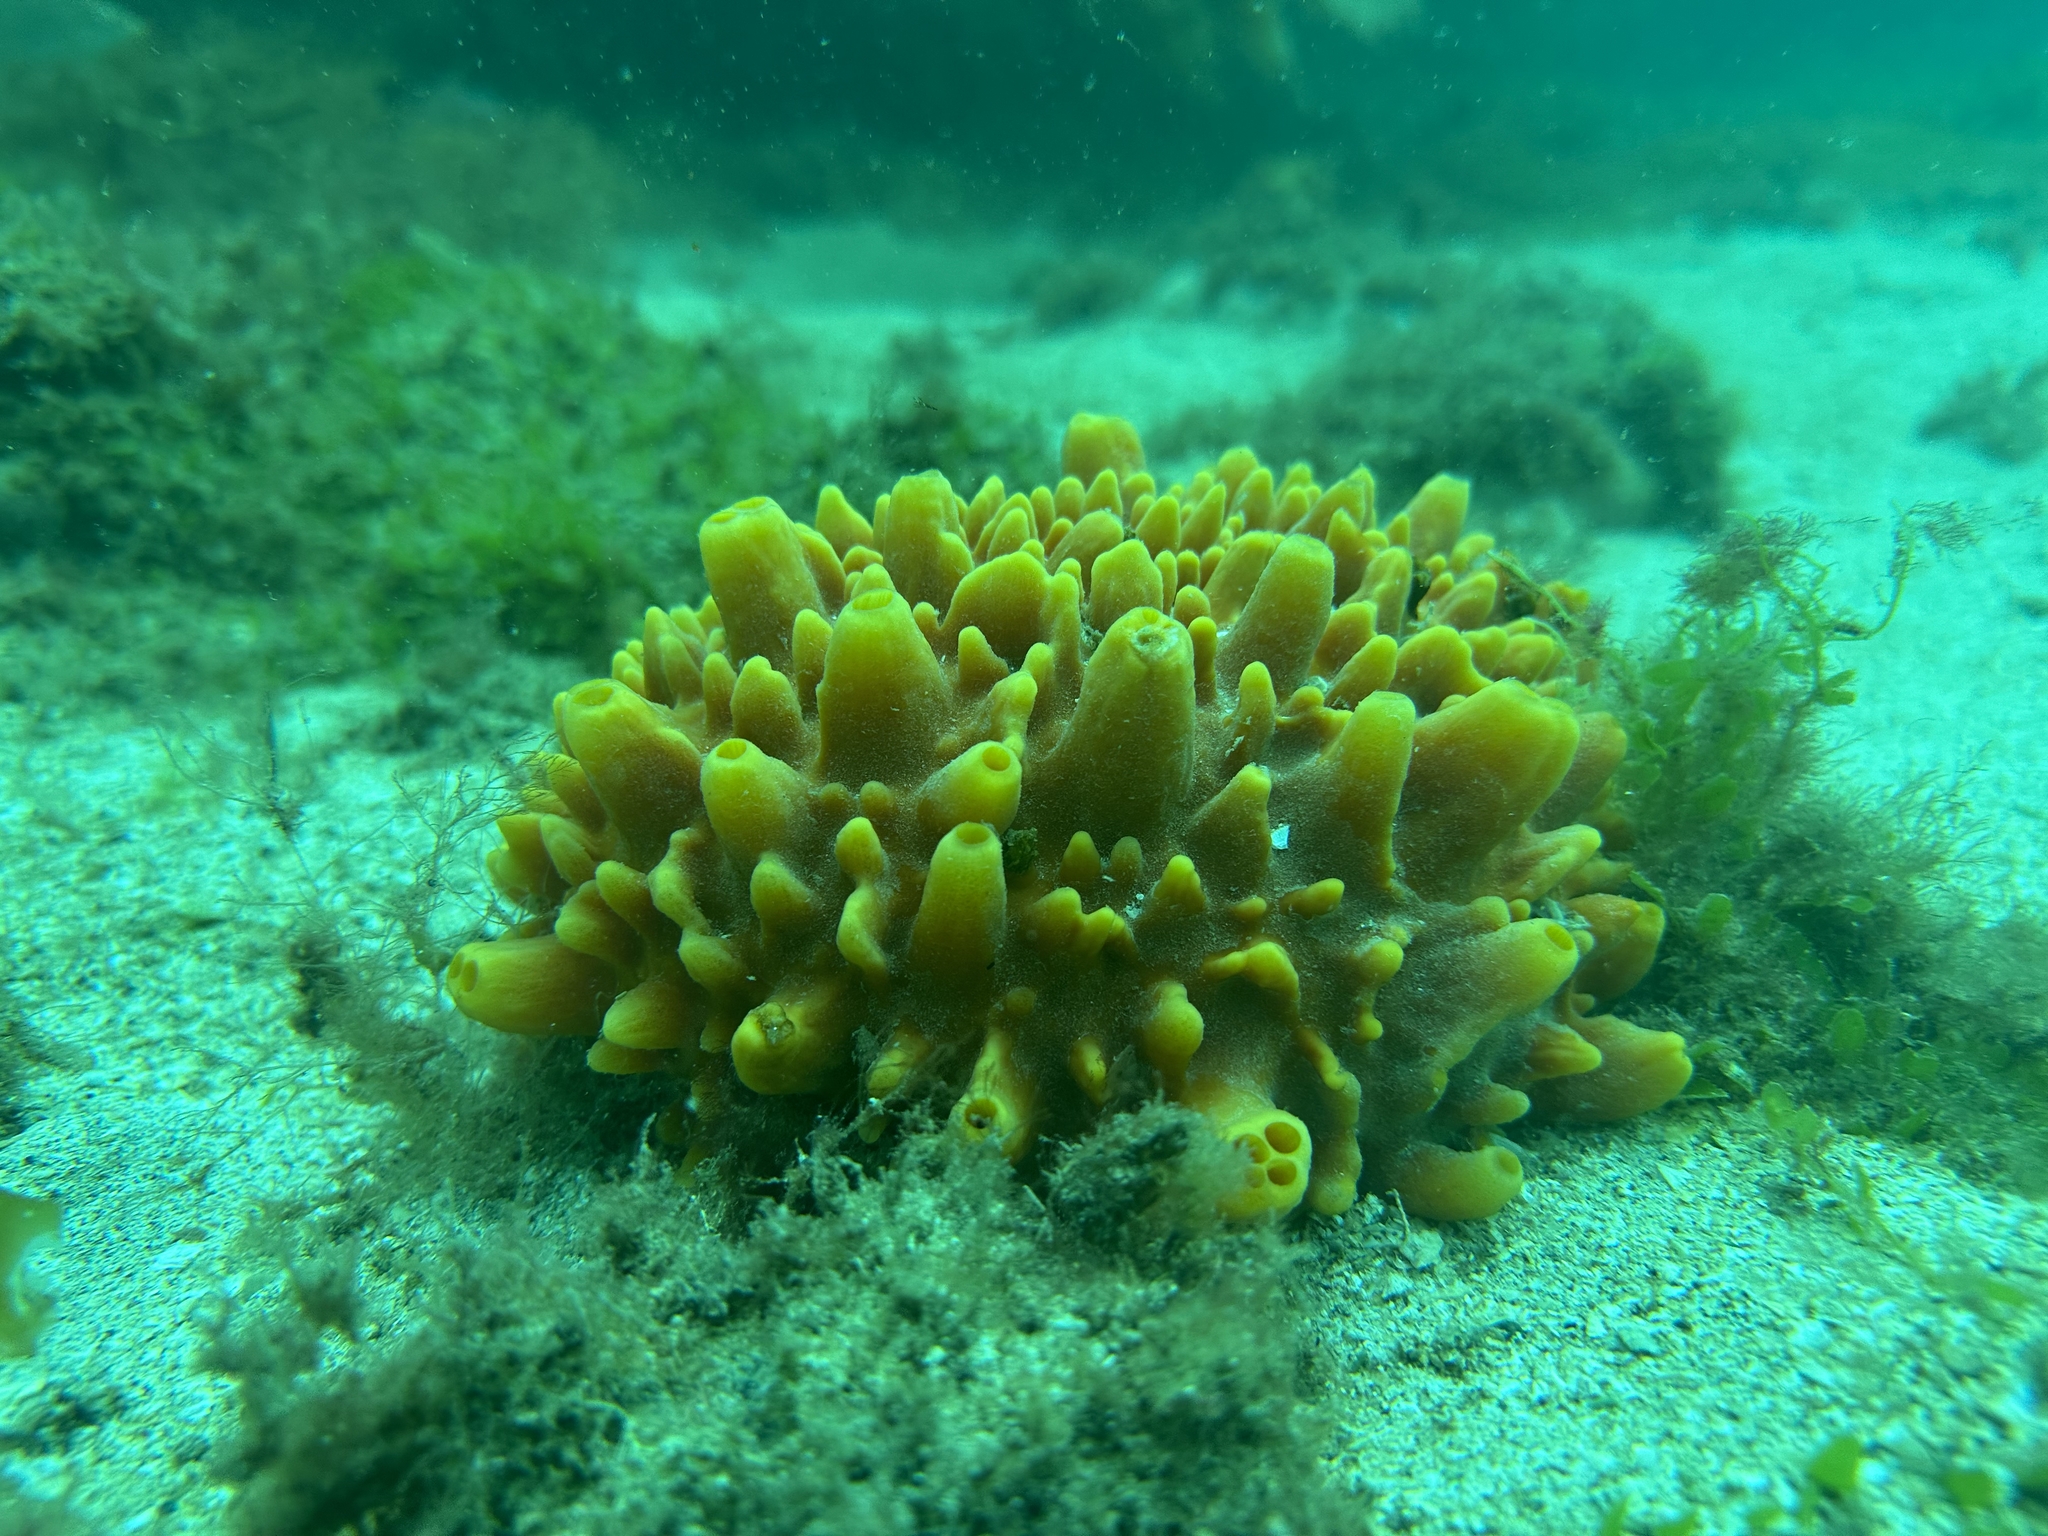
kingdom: Animalia
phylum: Porifera
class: Demospongiae
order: Polymastiida
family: Polymastiidae
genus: Polymastia
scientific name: Polymastia pepo
